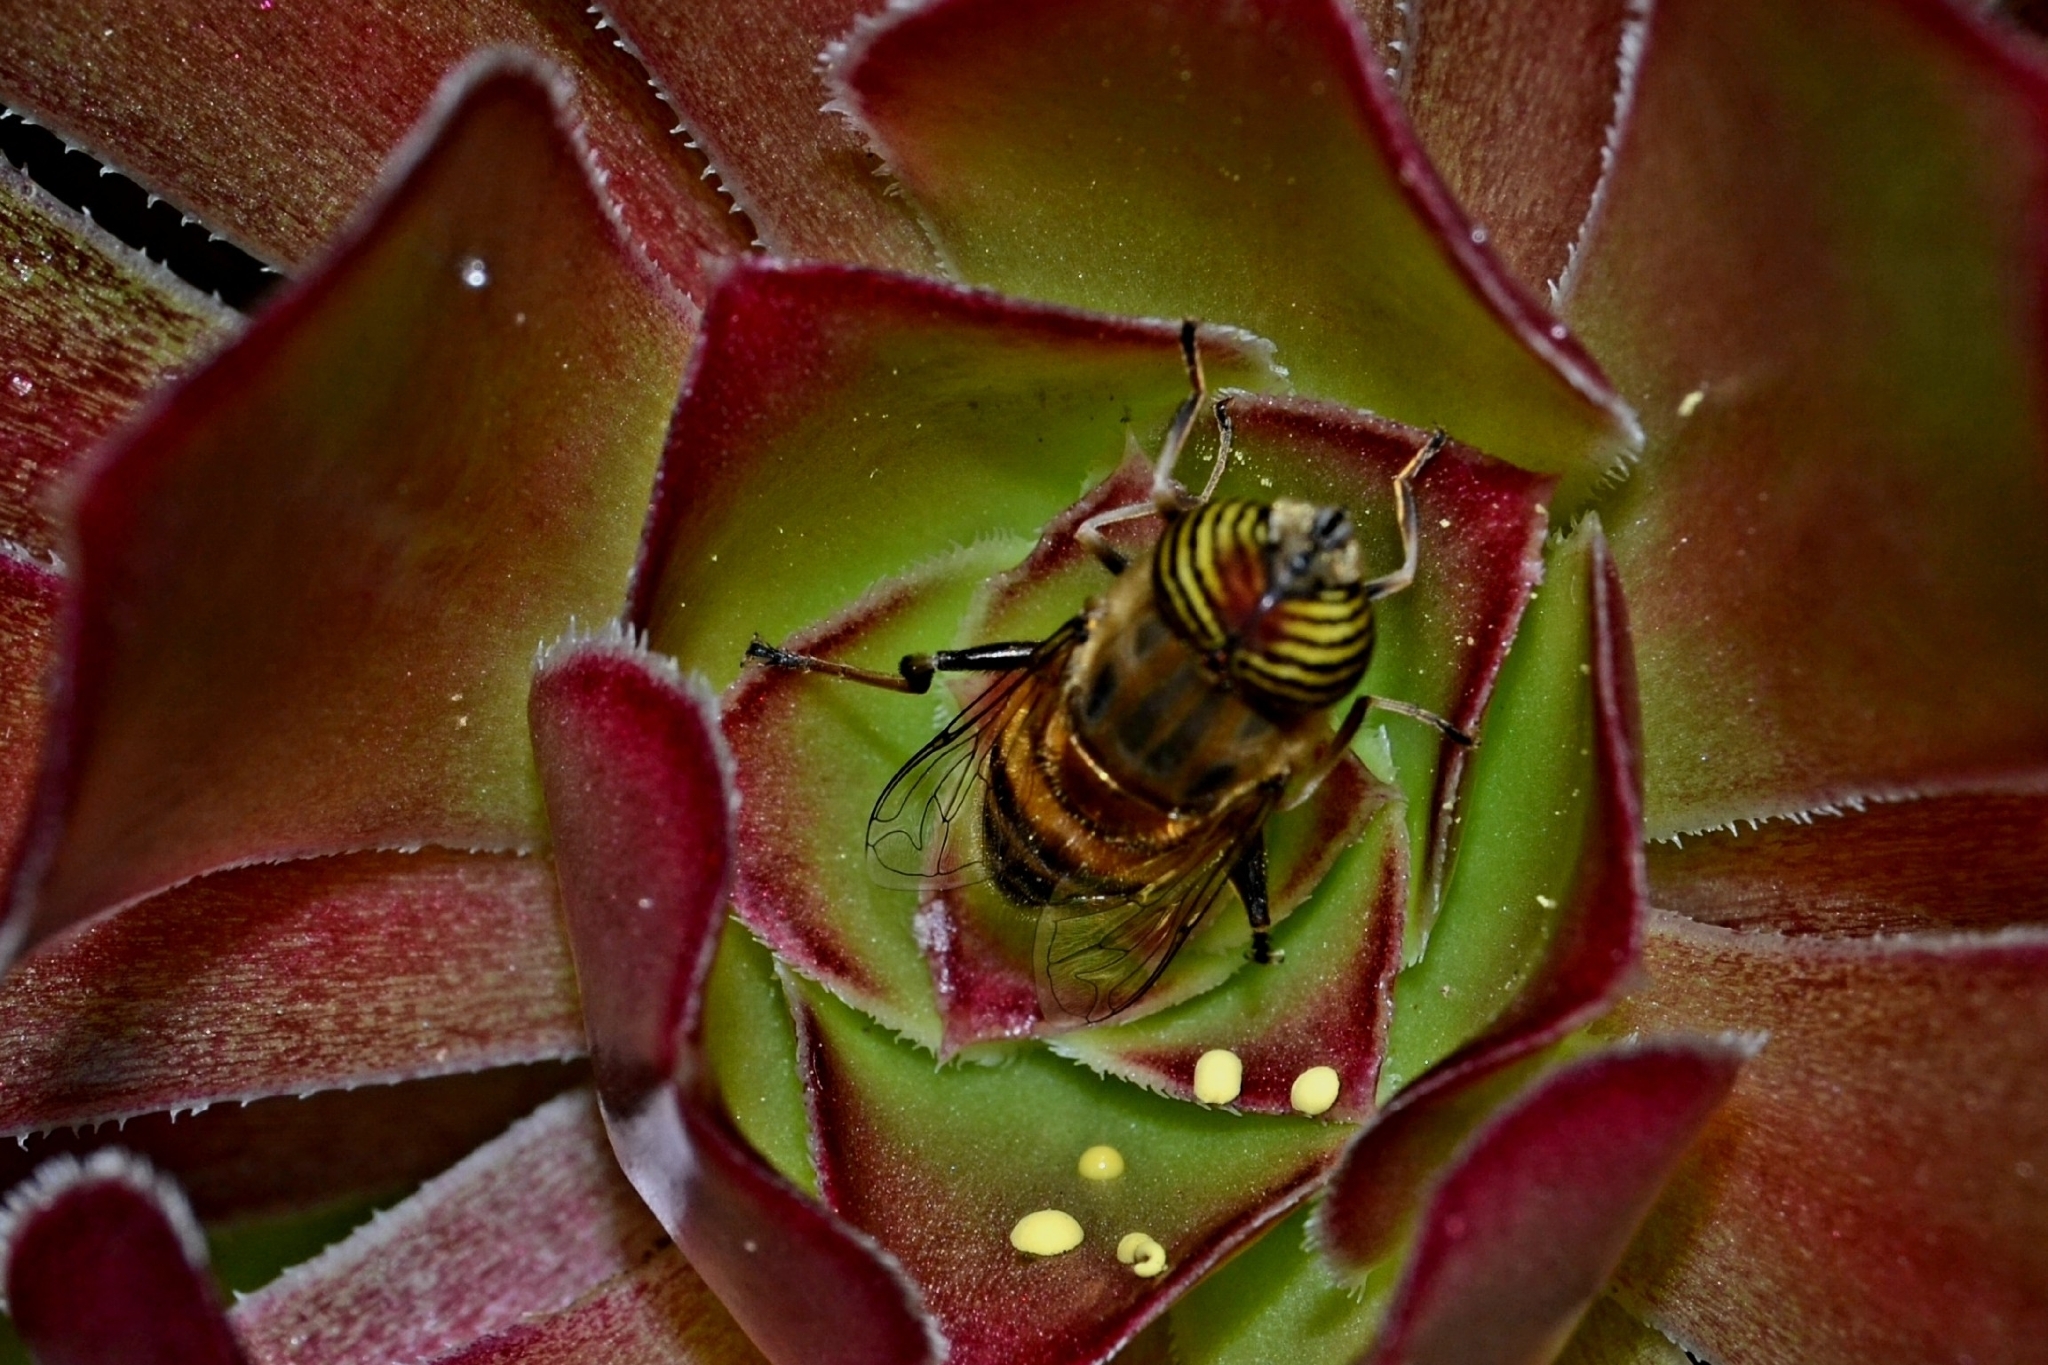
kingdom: Animalia
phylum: Arthropoda
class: Insecta
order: Diptera
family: Syrphidae
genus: Eristalinus
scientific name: Eristalinus taeniops
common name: Syrphid fly
